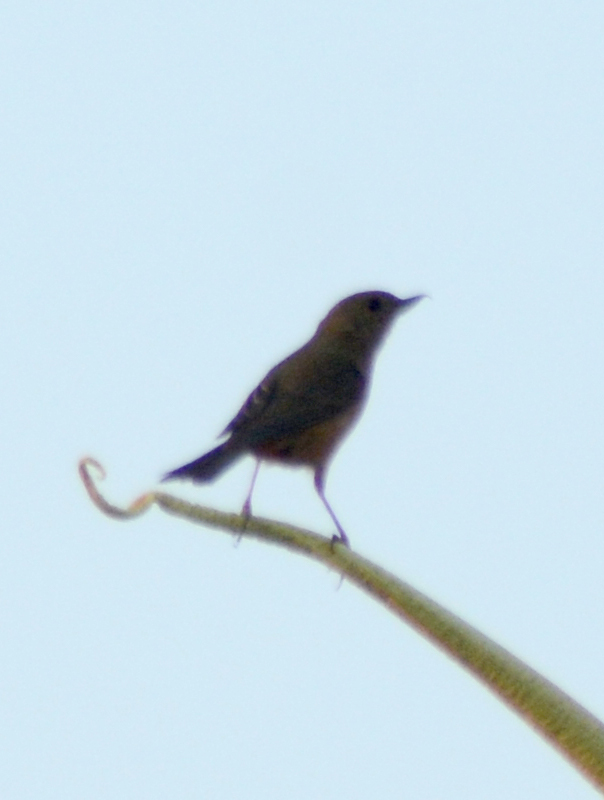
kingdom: Animalia
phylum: Chordata
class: Aves
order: Passeriformes
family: Thraupidae
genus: Diglossa
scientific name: Diglossa baritula
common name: Cinnamon-bellied flowerpiercer
